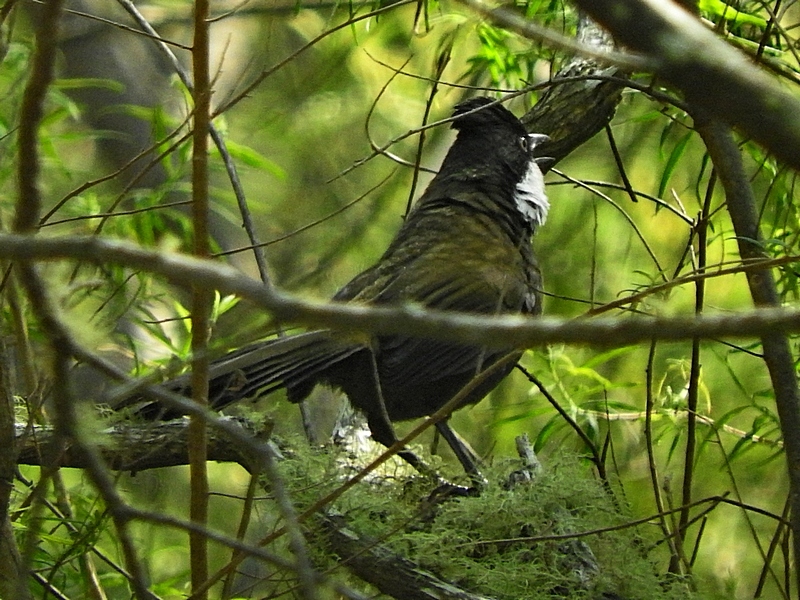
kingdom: Animalia
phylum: Chordata
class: Aves
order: Passeriformes
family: Psophodidae
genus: Psophodes
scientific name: Psophodes olivaceus
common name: Eastern whipbird
